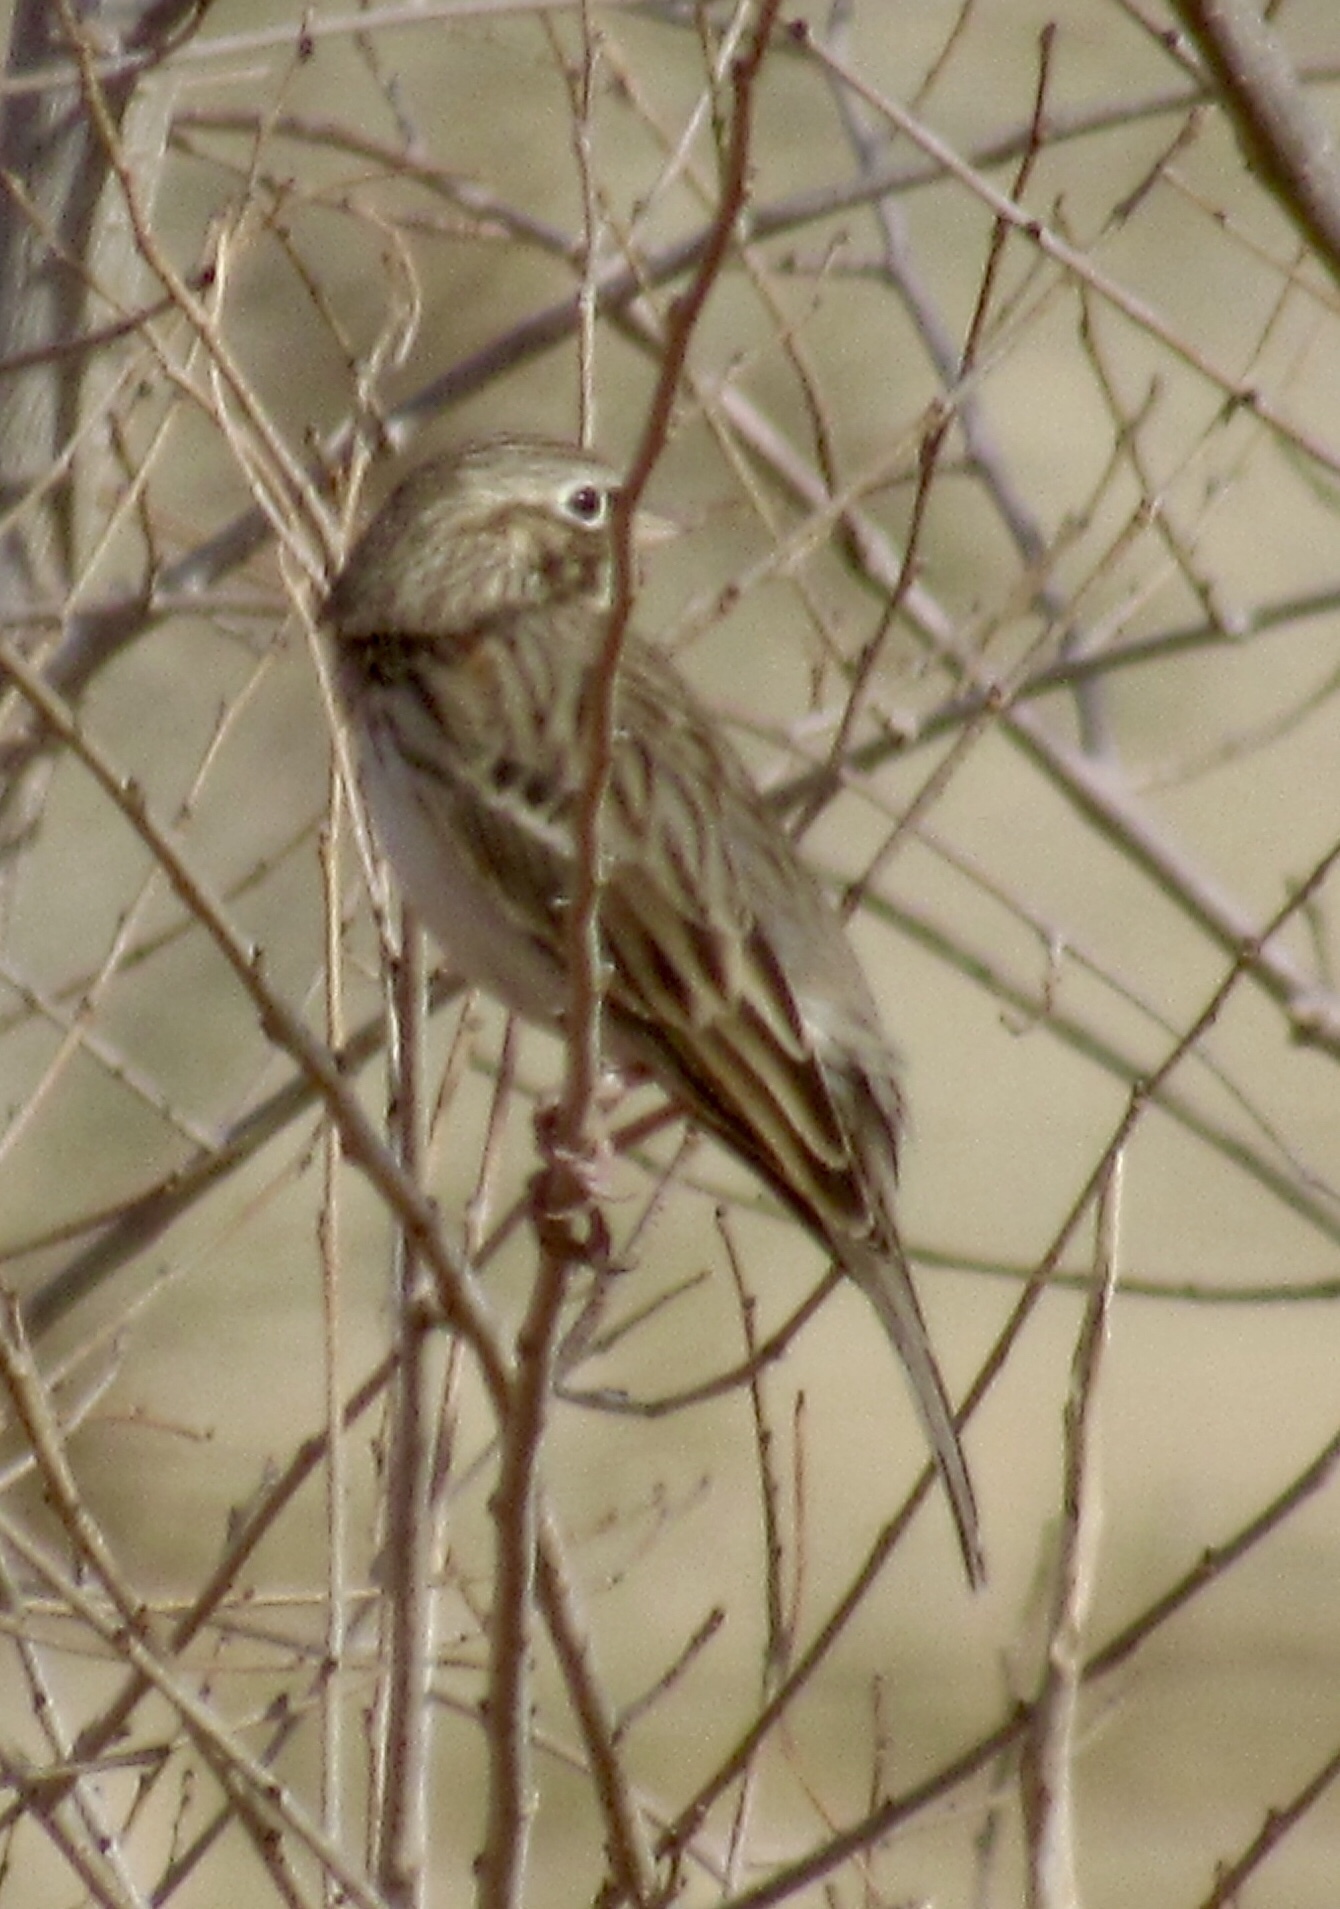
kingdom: Animalia
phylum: Chordata
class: Aves
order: Passeriformes
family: Passerellidae
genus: Pooecetes
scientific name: Pooecetes gramineus
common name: Vesper sparrow
